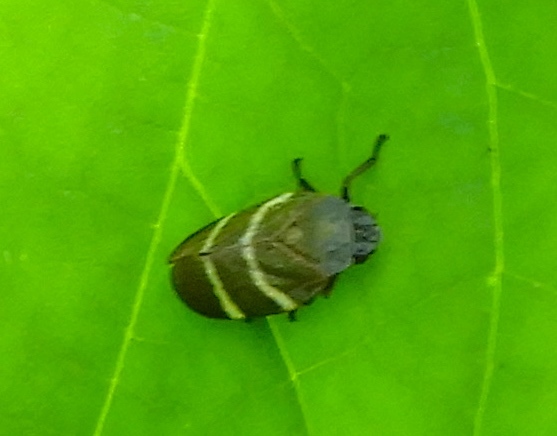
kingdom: Animalia
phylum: Arthropoda
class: Insecta
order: Hemiptera
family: Cercopidae
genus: Aeneolamia
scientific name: Aeneolamia albofasciata
